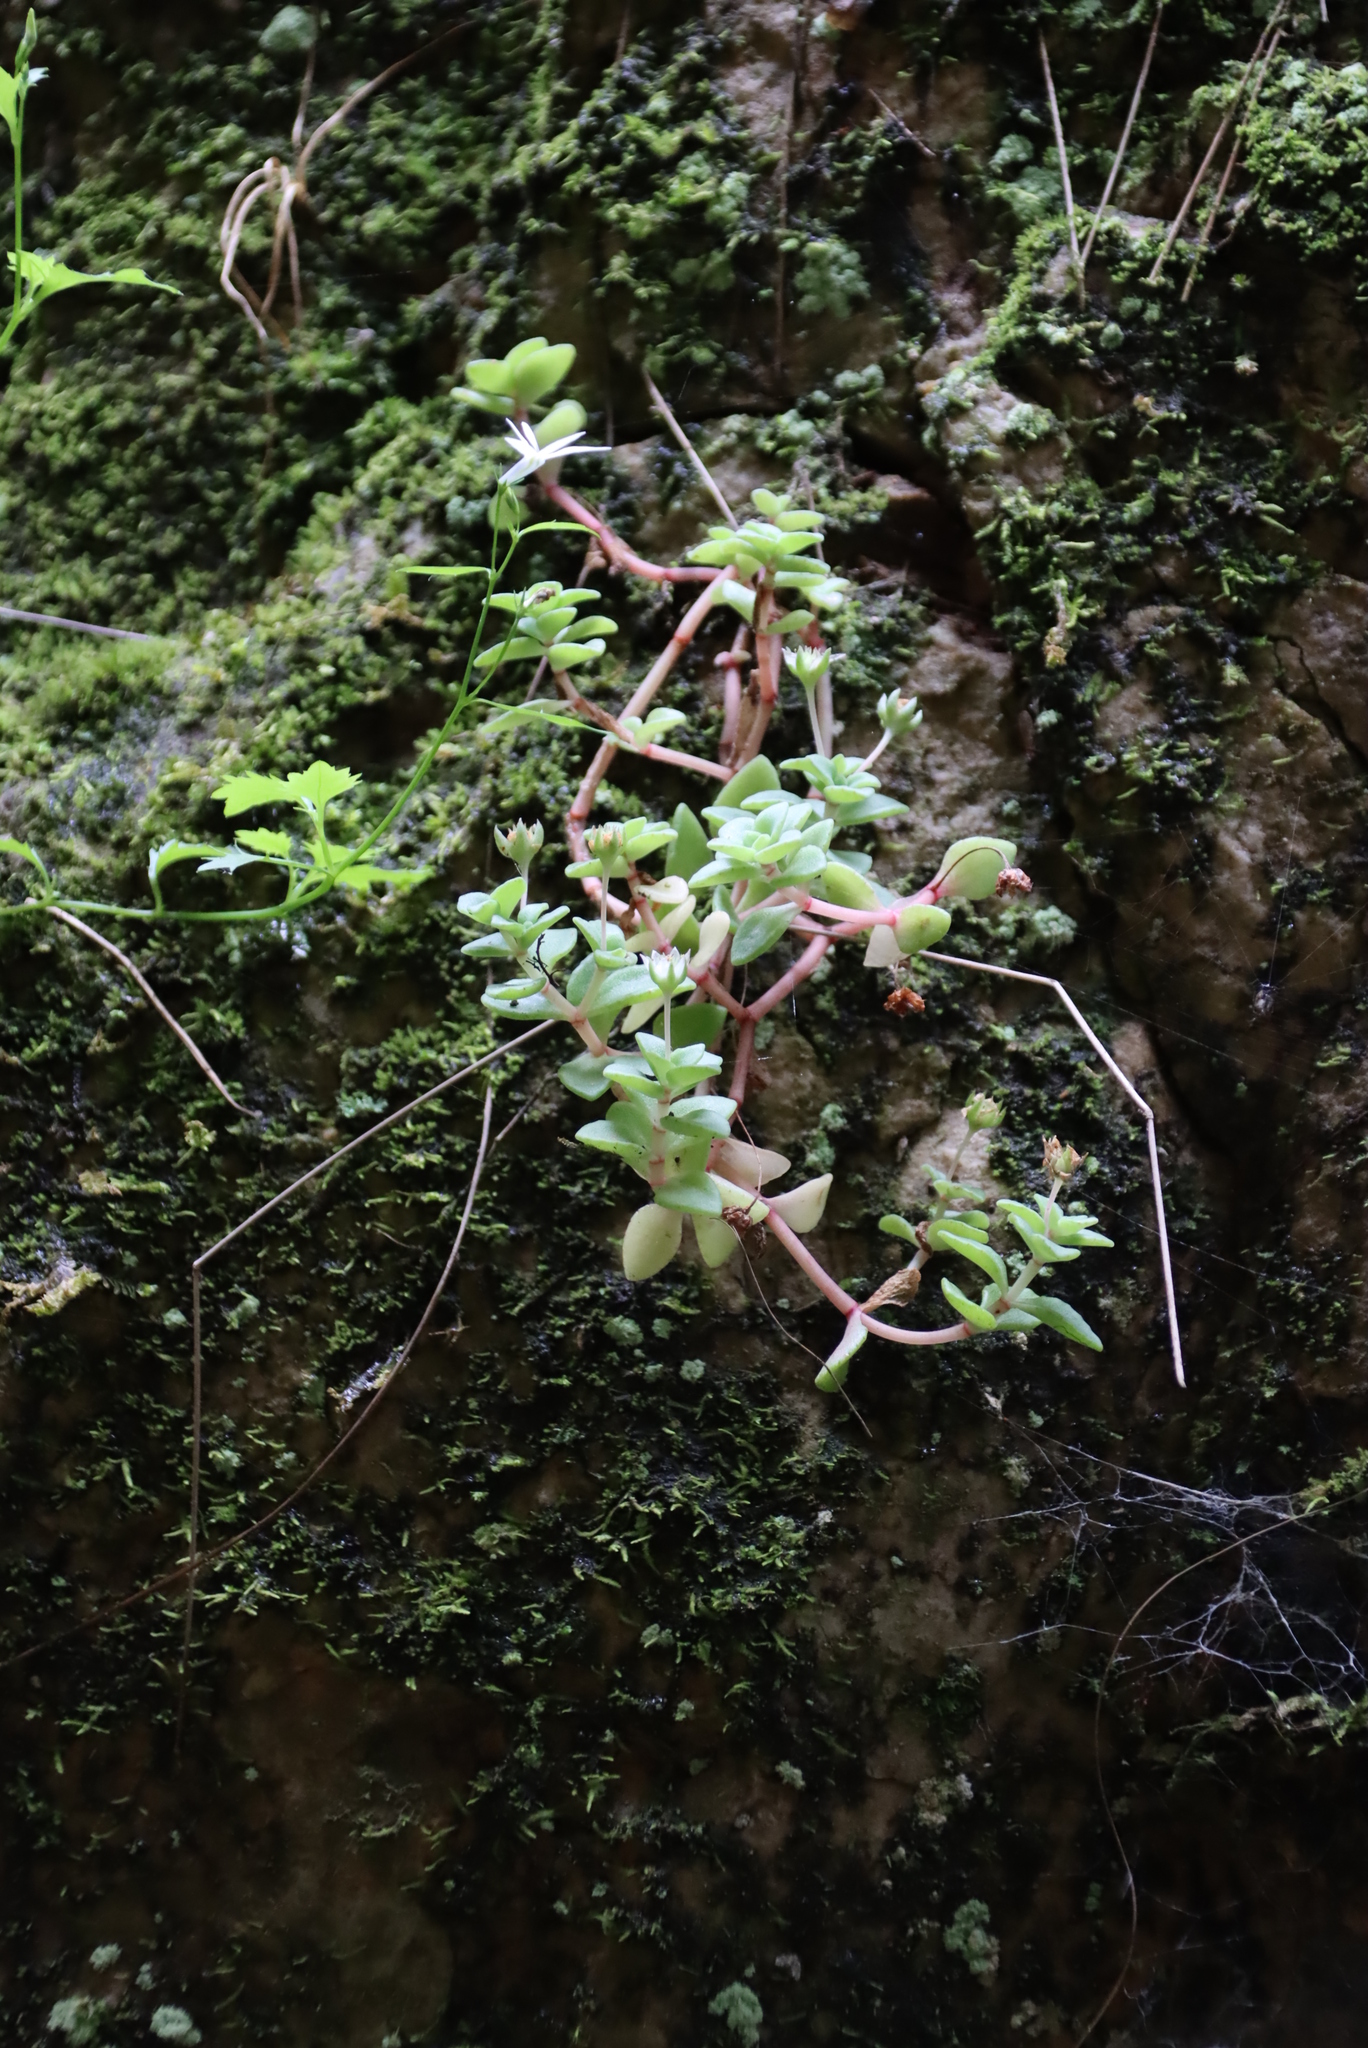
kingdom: Plantae
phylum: Tracheophyta
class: Magnoliopsida
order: Saxifragales
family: Crassulaceae
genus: Crassula
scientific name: Crassula pellucida
